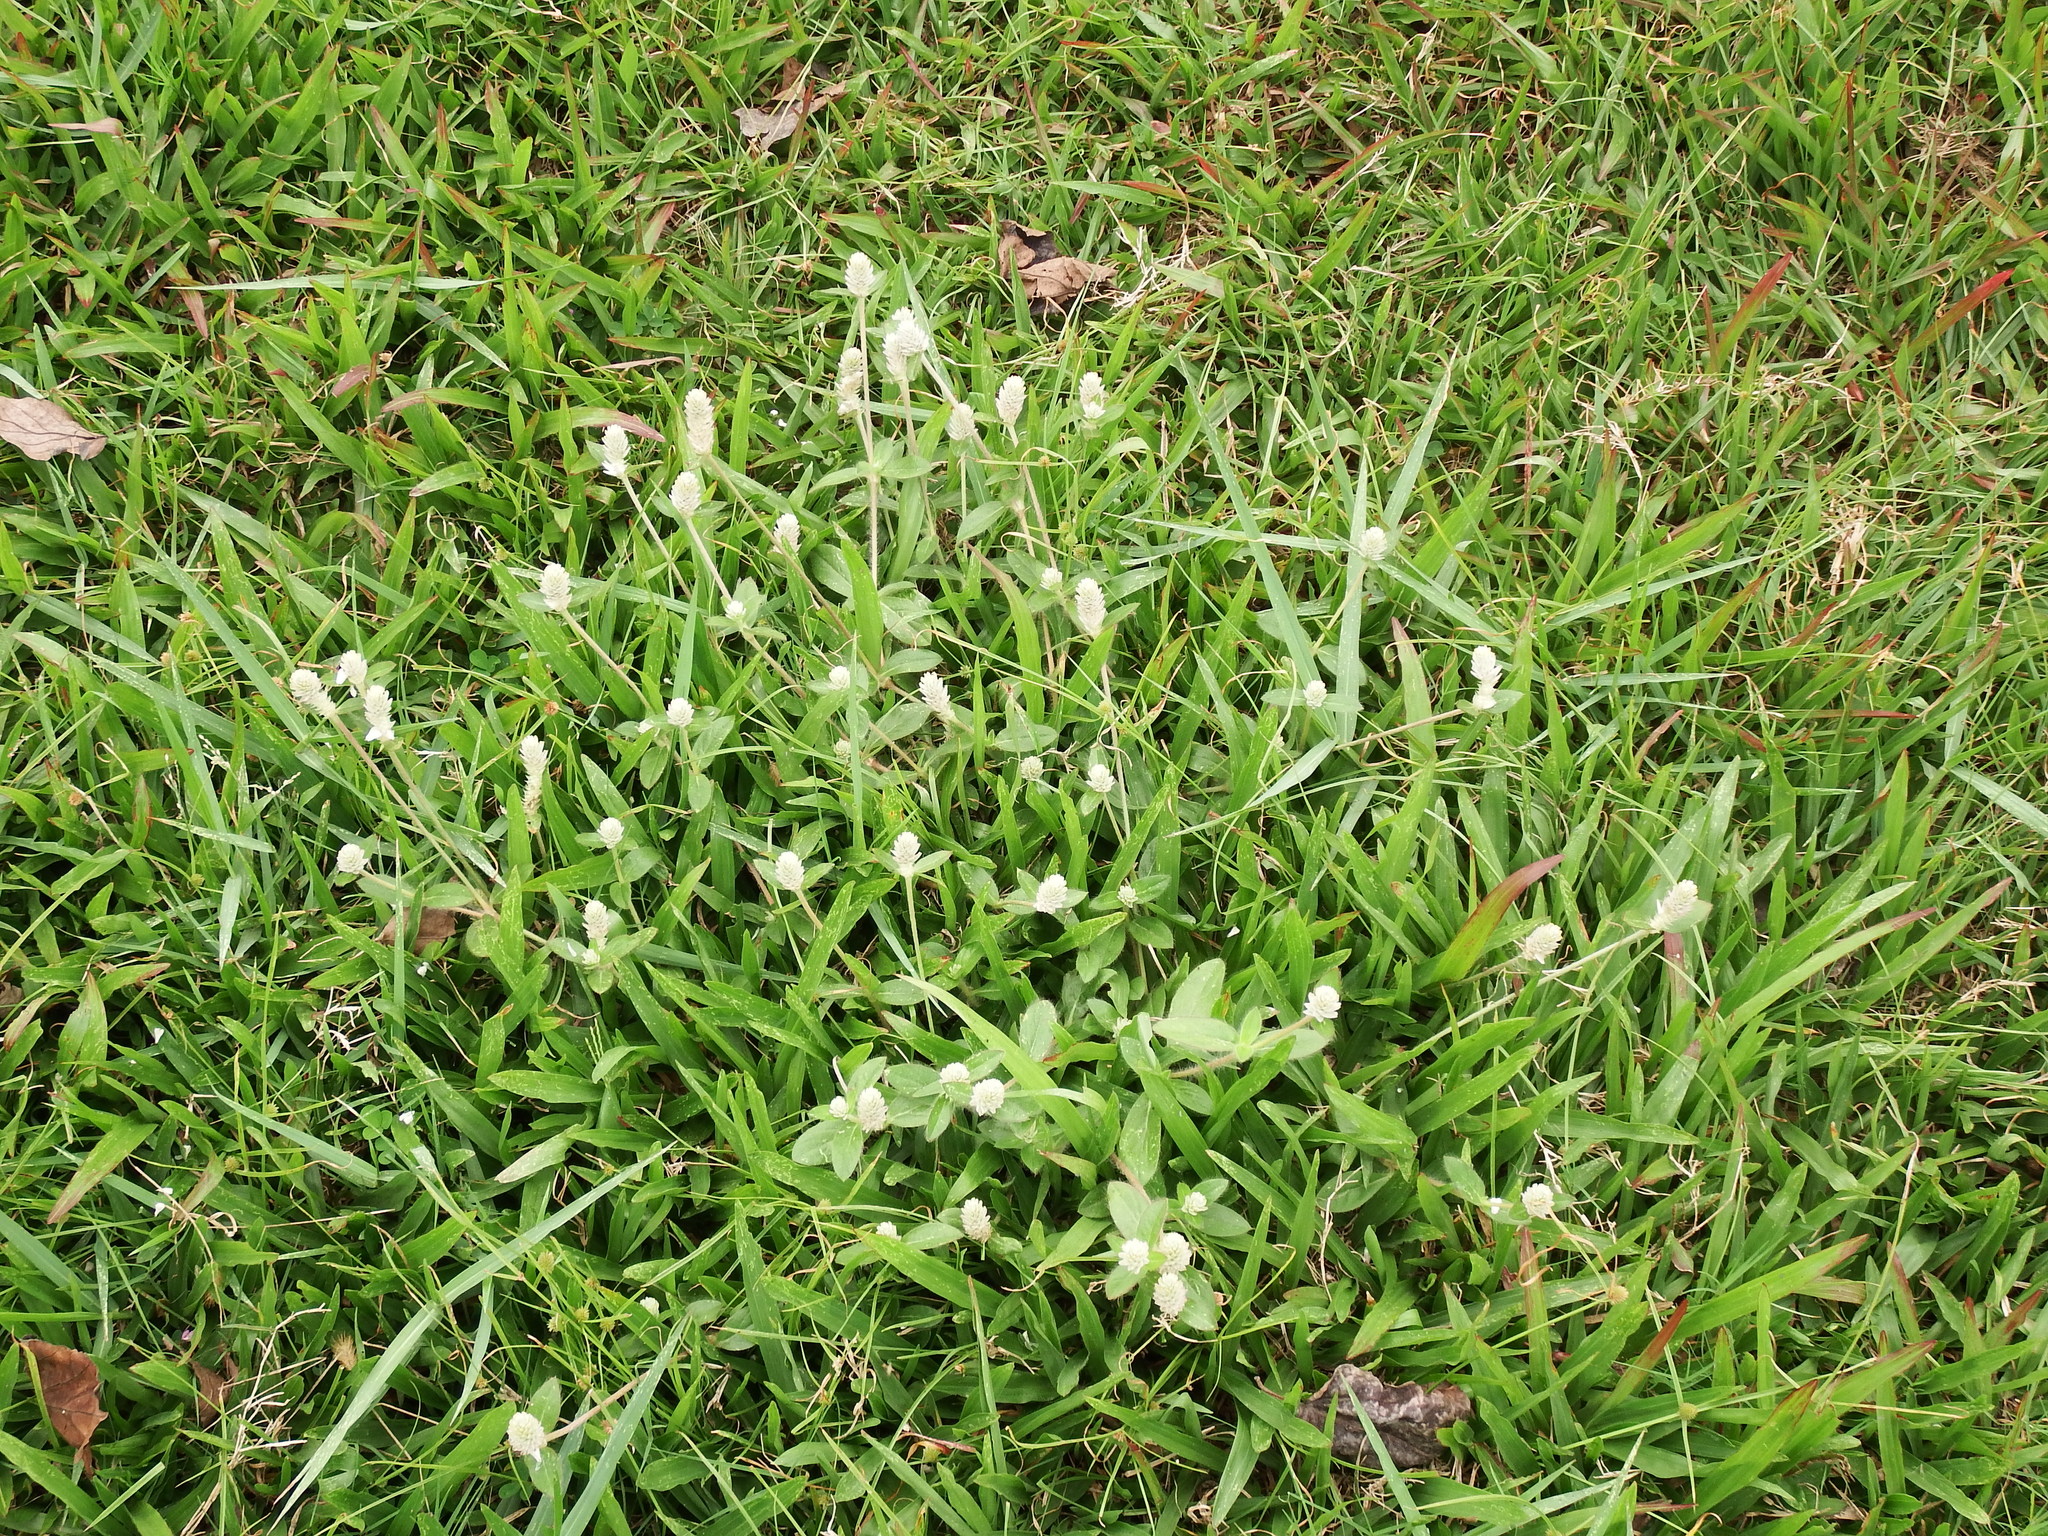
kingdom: Plantae
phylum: Tracheophyta
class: Magnoliopsida
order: Caryophyllales
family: Amaranthaceae
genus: Gomphrena
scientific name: Gomphrena celosioides
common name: Gomphrena-weed
